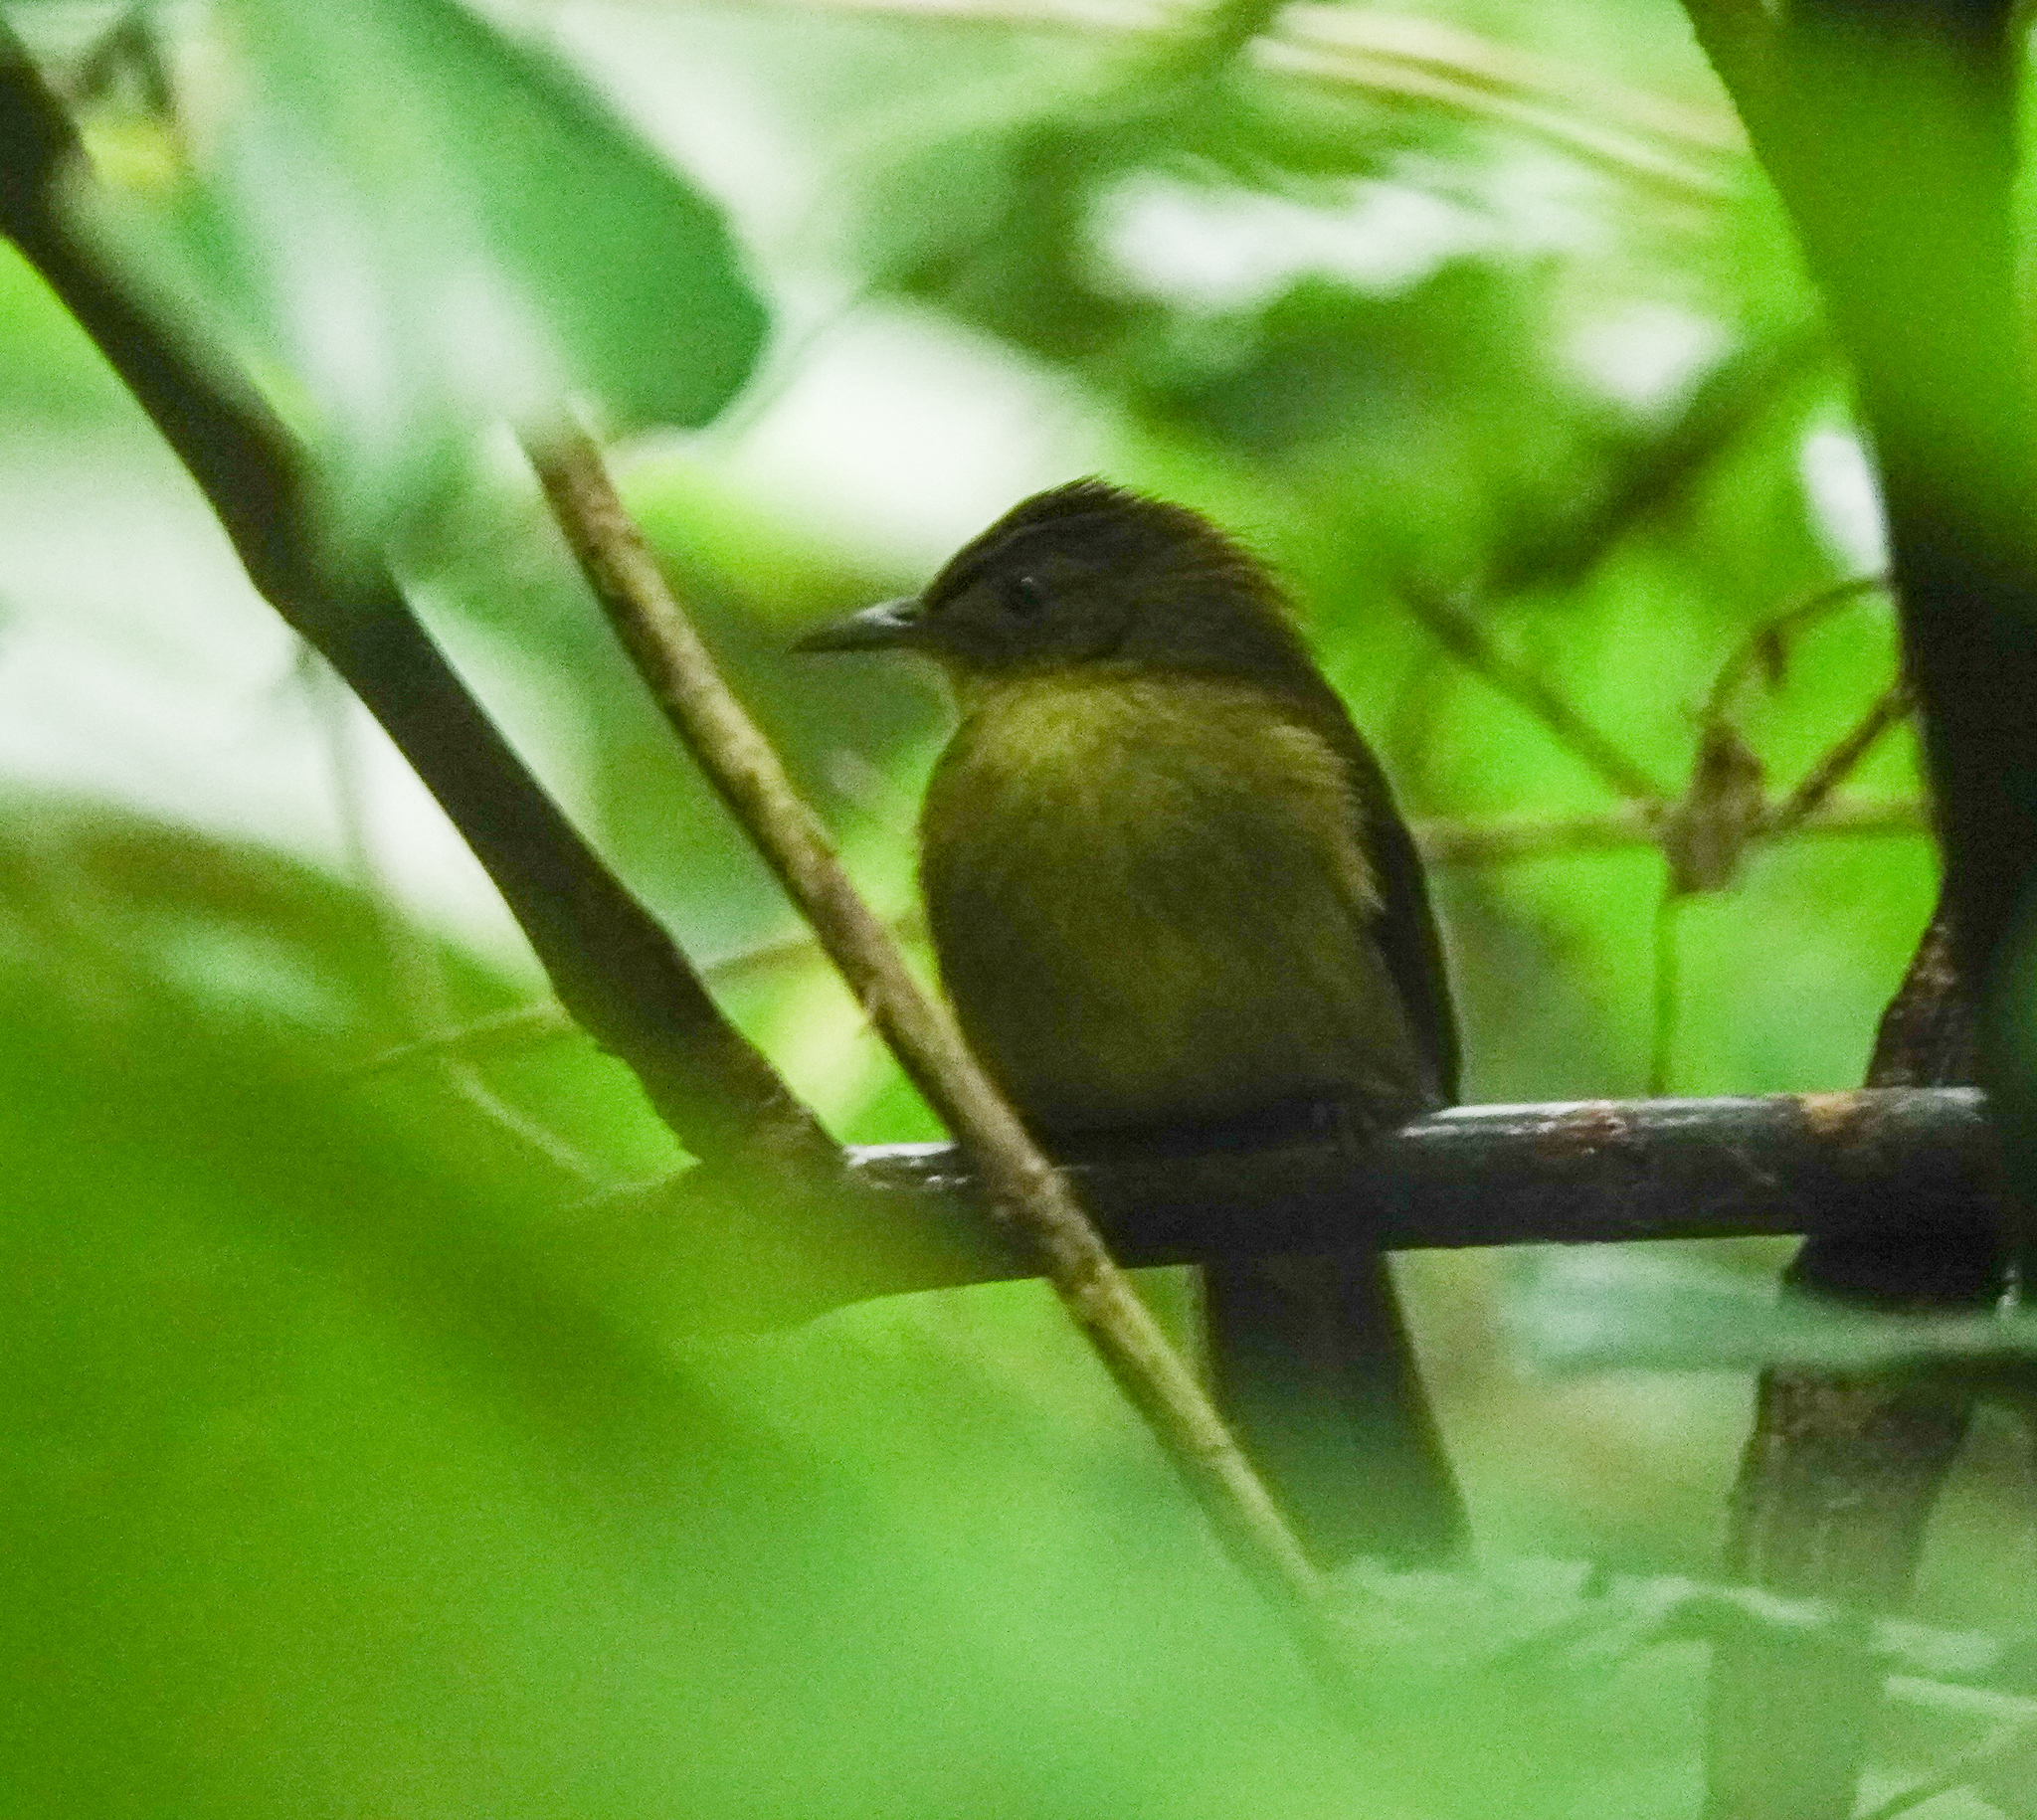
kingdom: Animalia
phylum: Chordata
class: Aves
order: Passeriformes
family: Pycnonotidae
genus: Iole
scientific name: Iole virescens
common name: Olive bulbul
